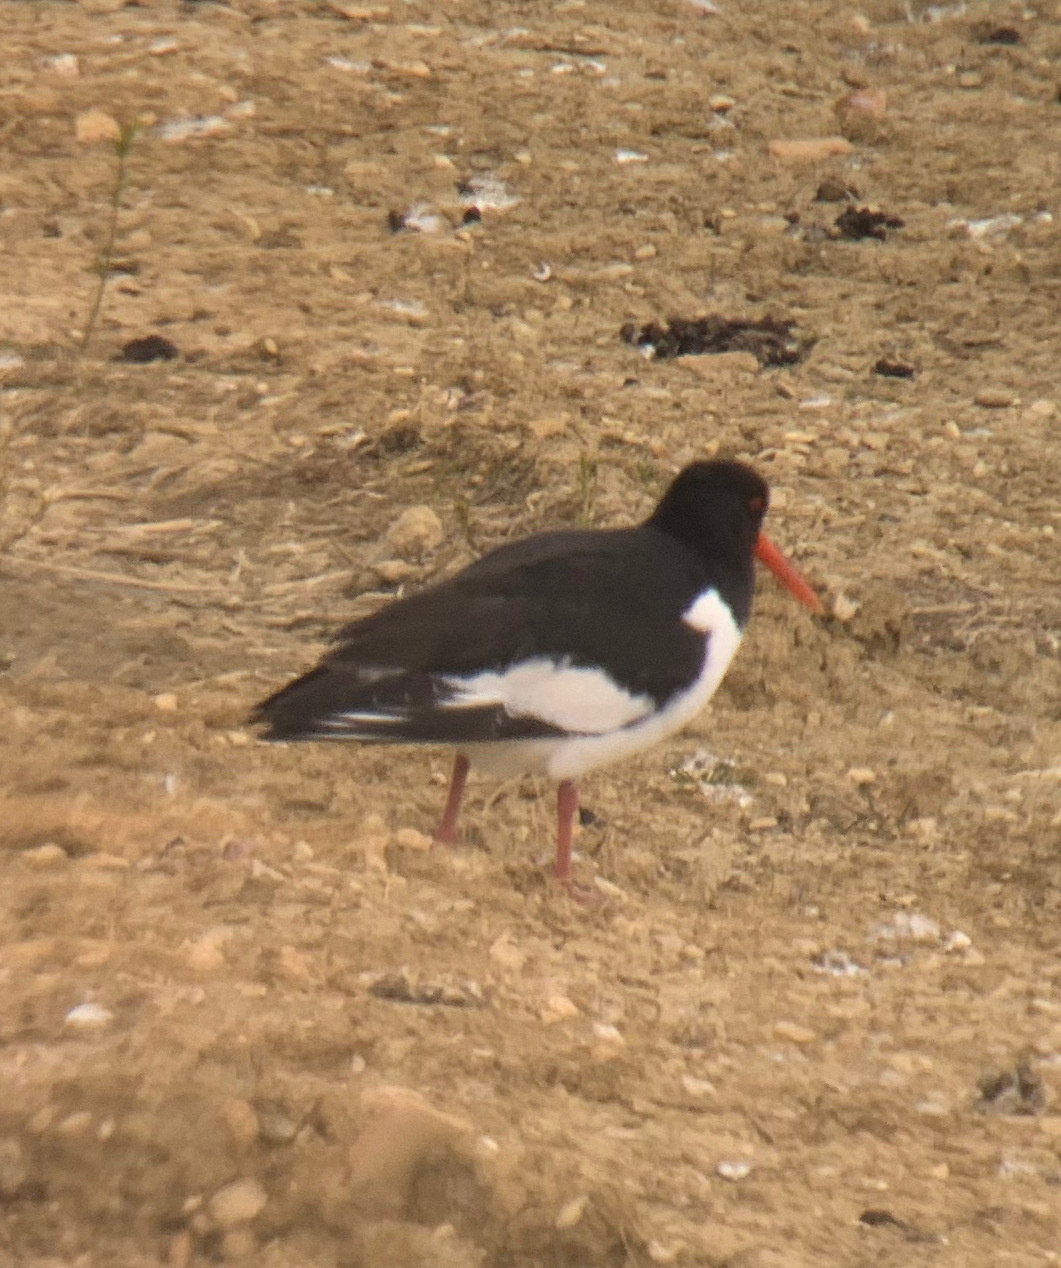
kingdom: Animalia
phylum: Chordata
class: Aves
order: Charadriiformes
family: Haematopodidae
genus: Haematopus
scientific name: Haematopus ostralegus
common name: Eurasian oystercatcher
